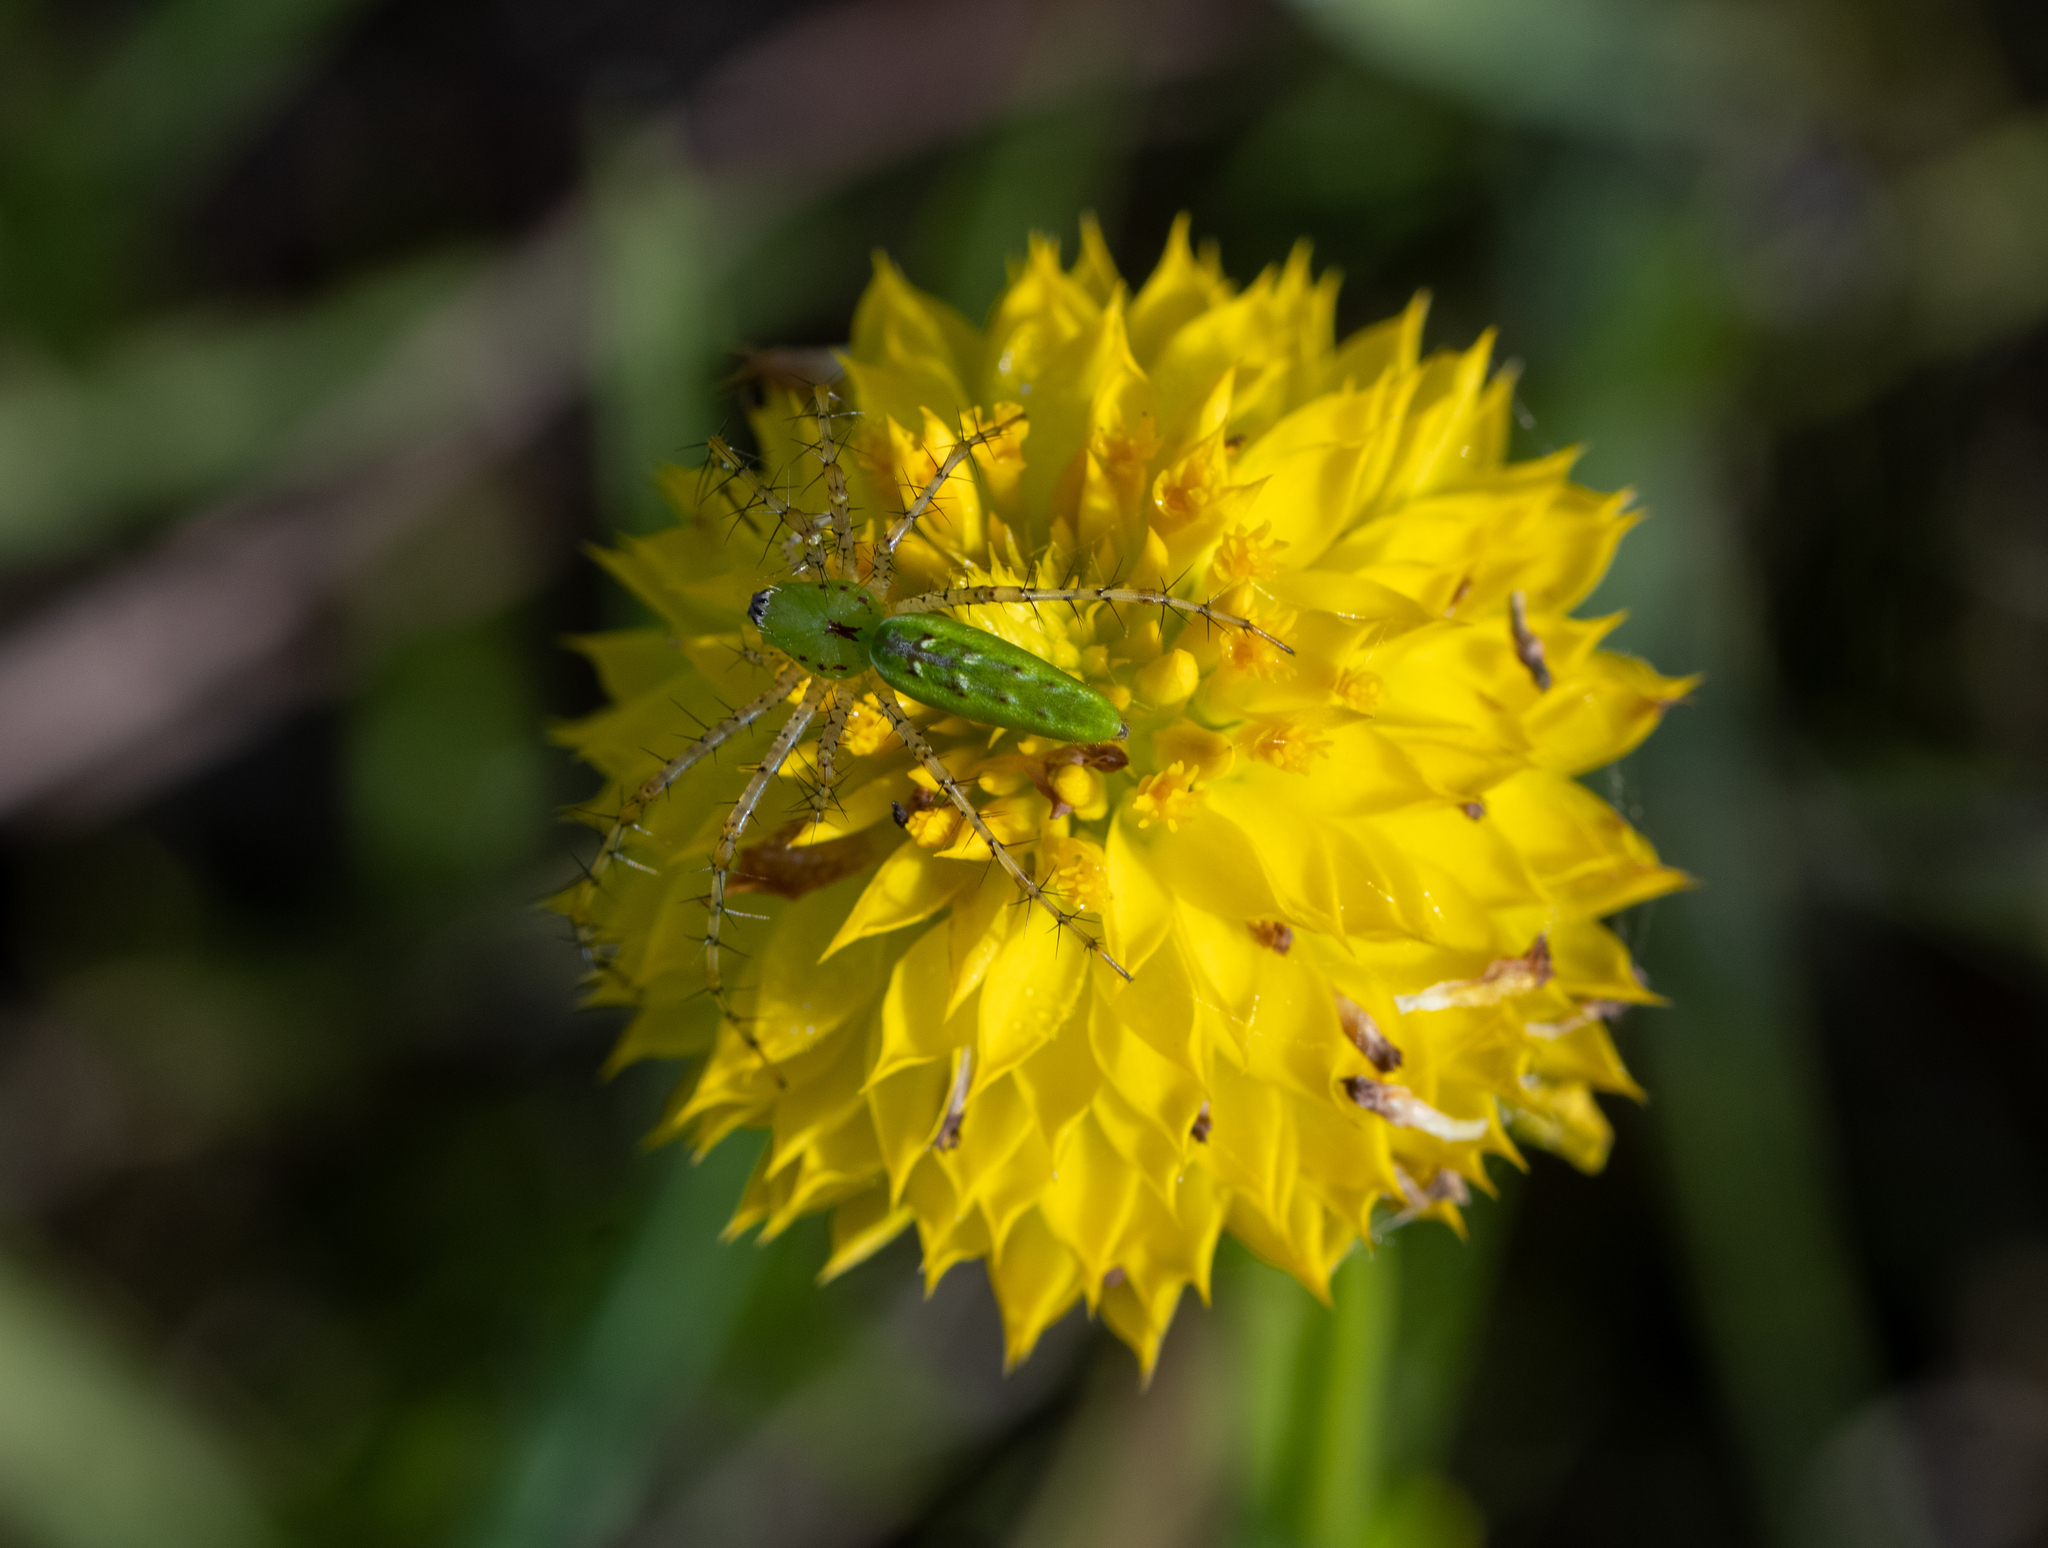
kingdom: Animalia
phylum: Arthropoda
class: Arachnida
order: Araneae
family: Oxyopidae
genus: Peucetia
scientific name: Peucetia viridans
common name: Lynx spiders
